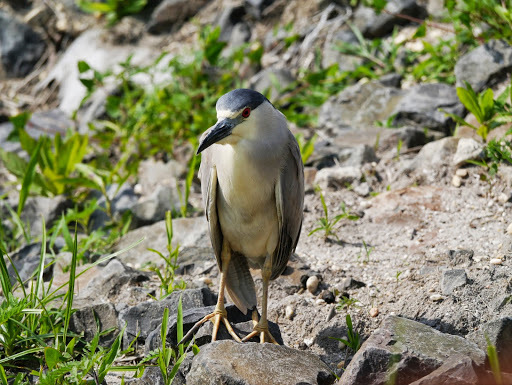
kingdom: Animalia
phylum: Chordata
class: Aves
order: Pelecaniformes
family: Ardeidae
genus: Nycticorax
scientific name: Nycticorax nycticorax
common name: Black-crowned night heron
